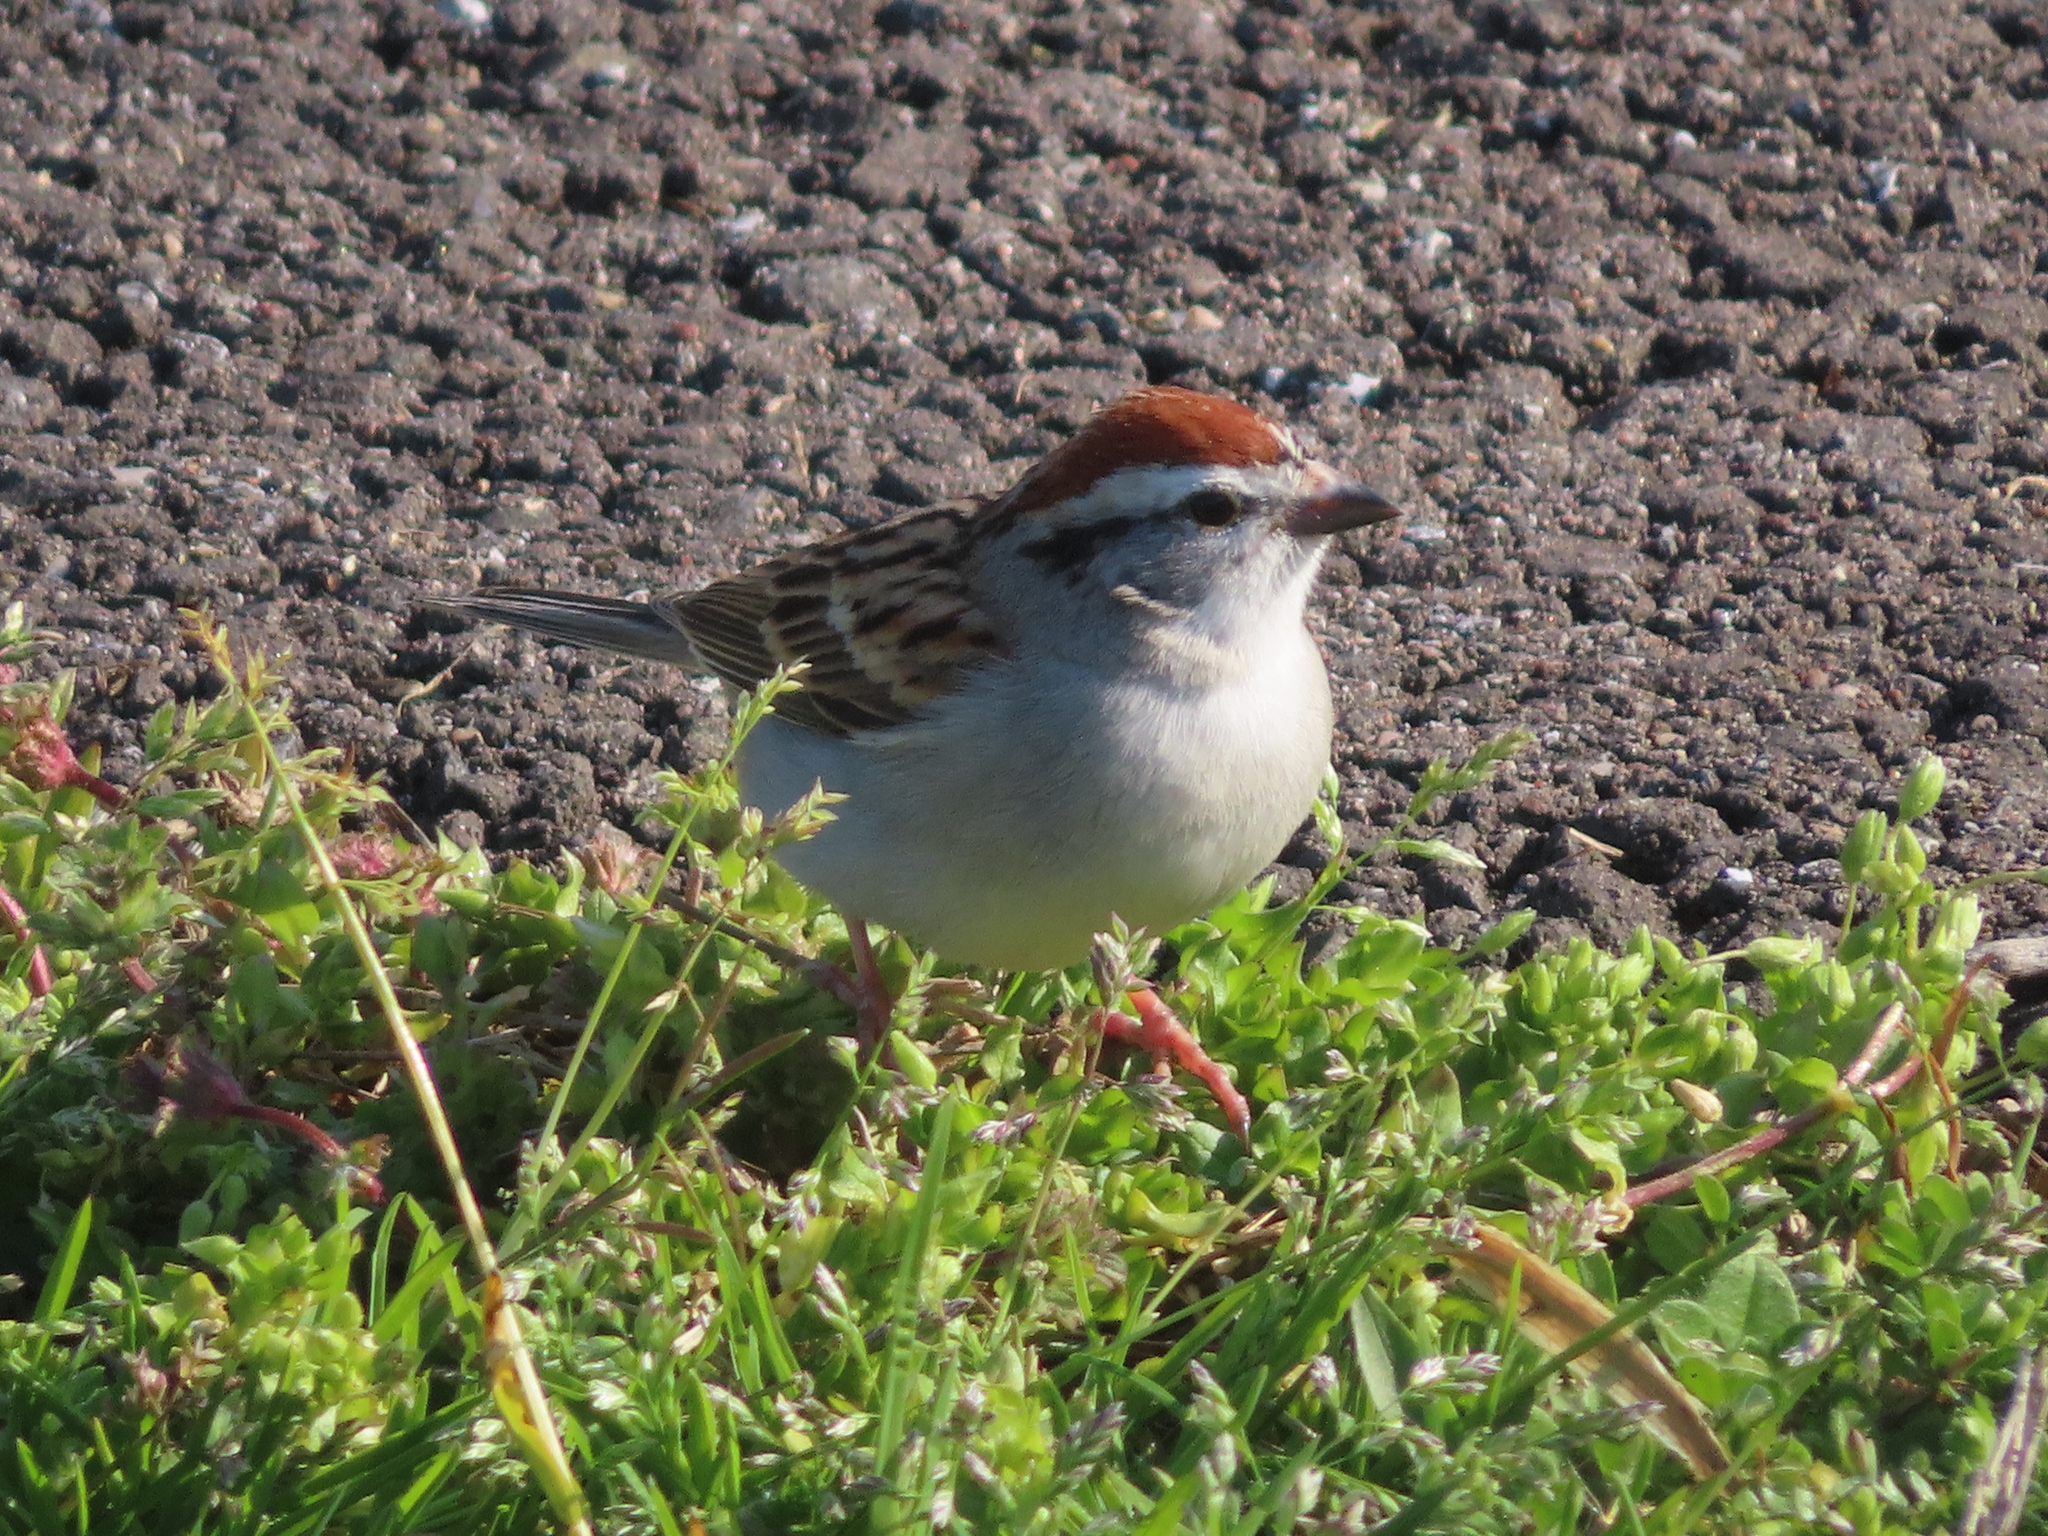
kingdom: Animalia
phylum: Chordata
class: Aves
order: Passeriformes
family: Passerellidae
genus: Spizella
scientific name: Spizella passerina
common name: Chipping sparrow
